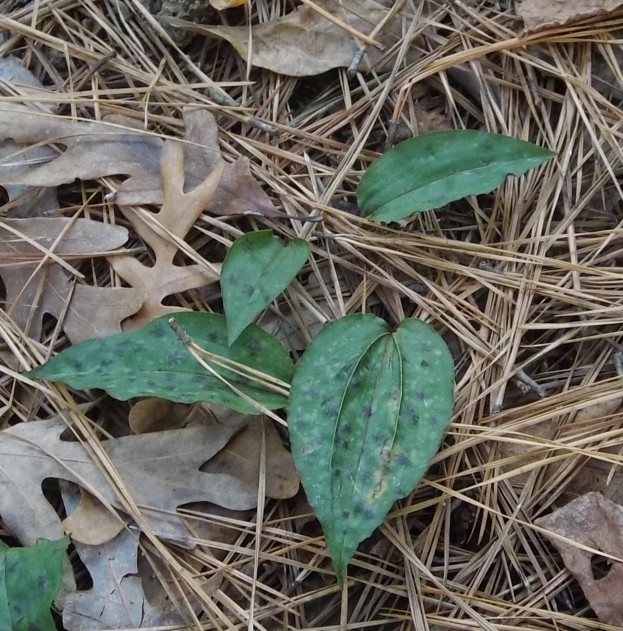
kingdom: Plantae
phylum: Tracheophyta
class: Liliopsida
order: Asparagales
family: Orchidaceae
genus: Tipularia
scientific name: Tipularia discolor
